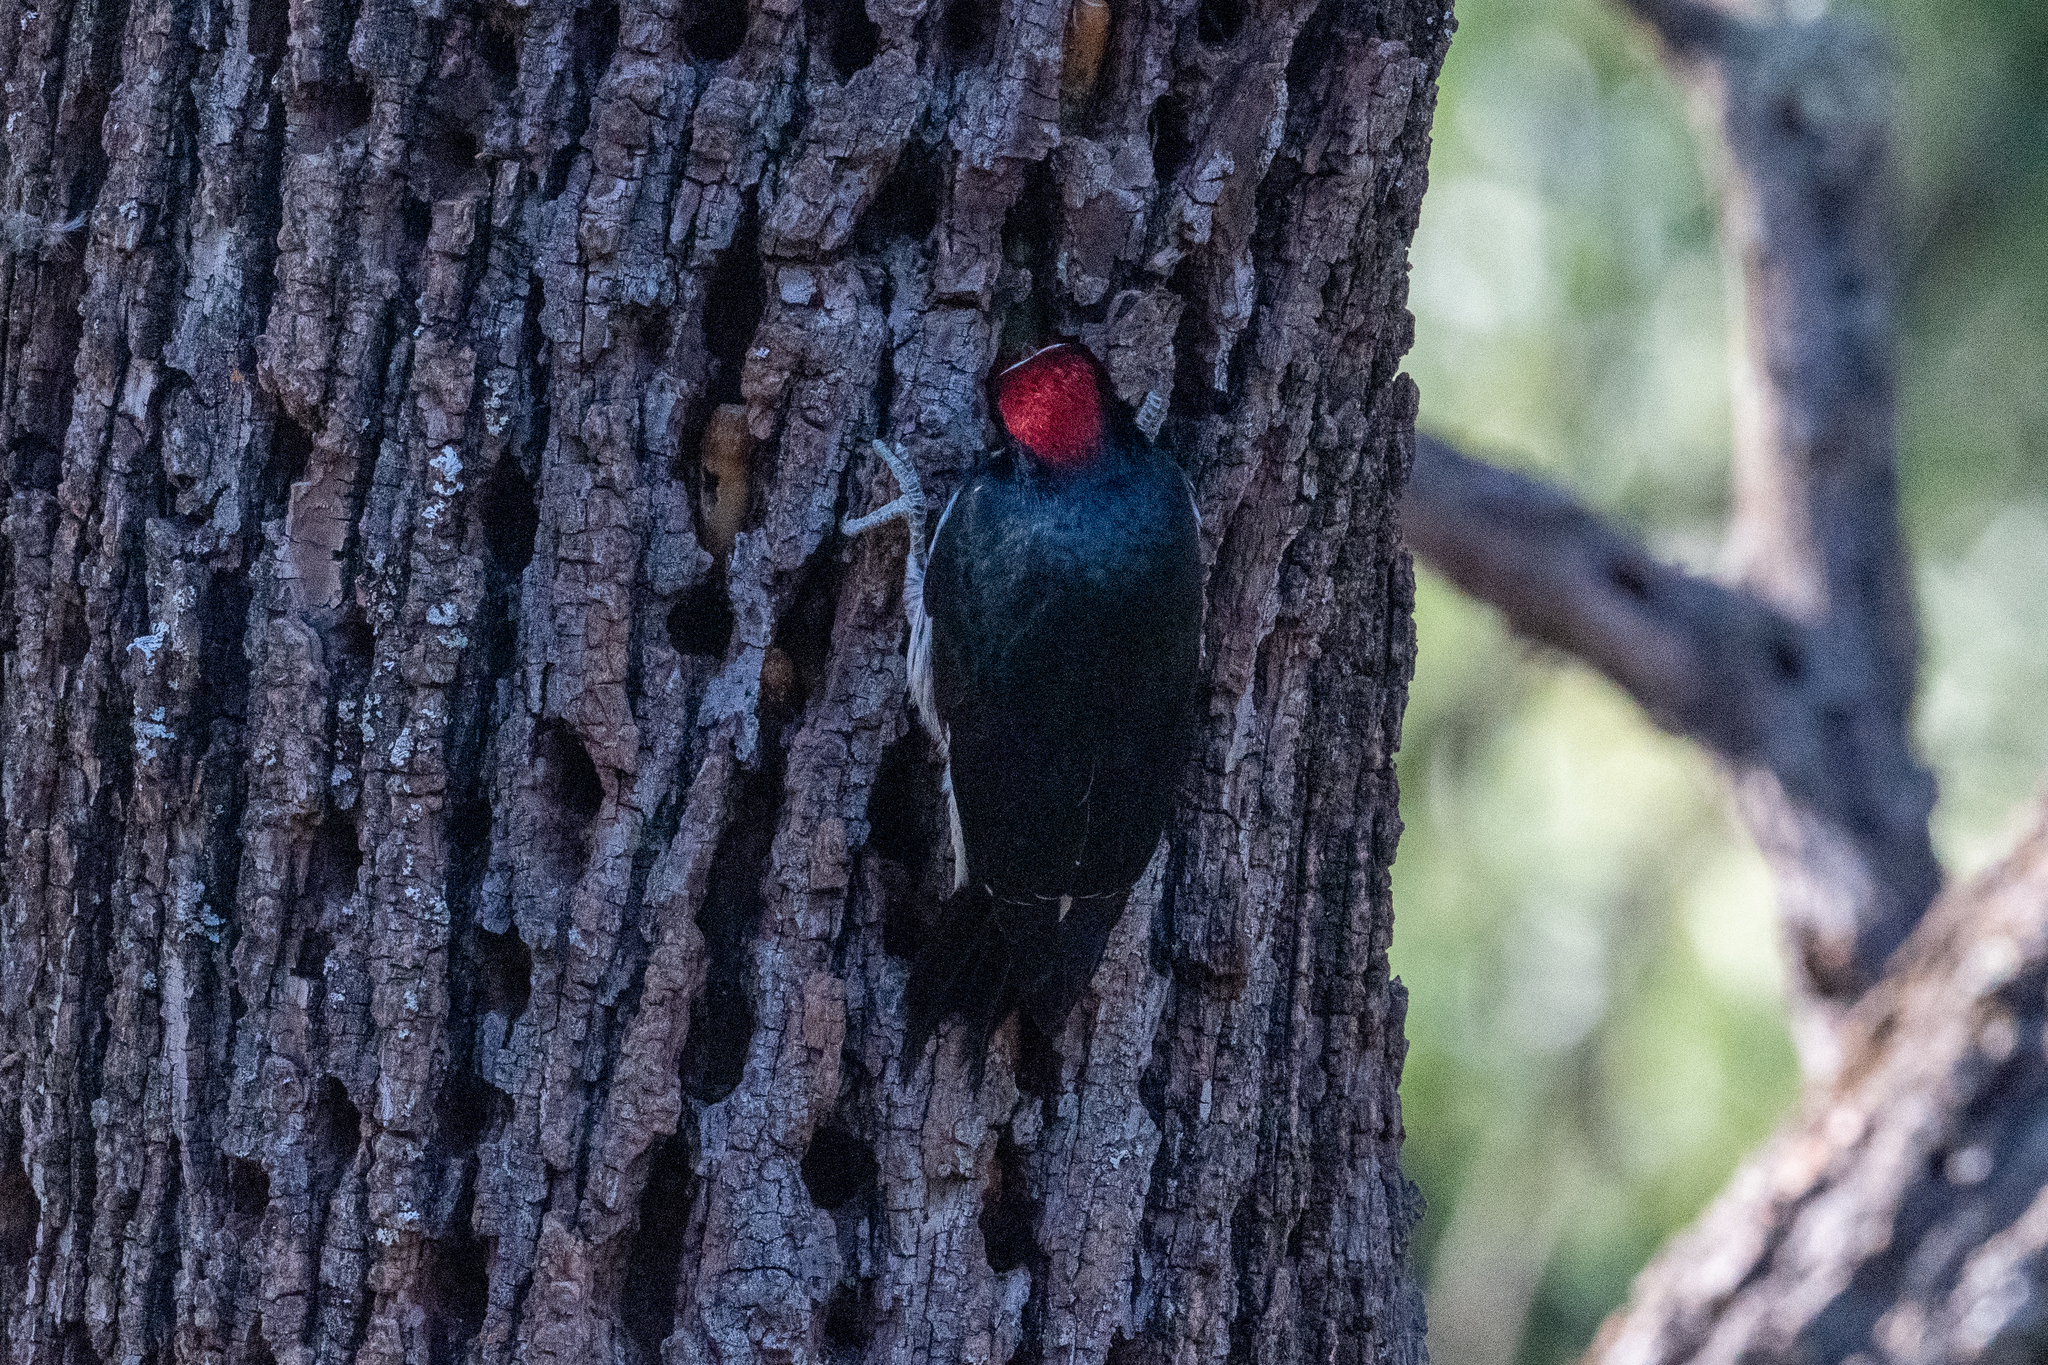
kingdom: Animalia
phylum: Chordata
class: Aves
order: Piciformes
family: Picidae
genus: Melanerpes
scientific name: Melanerpes formicivorus
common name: Acorn woodpecker
